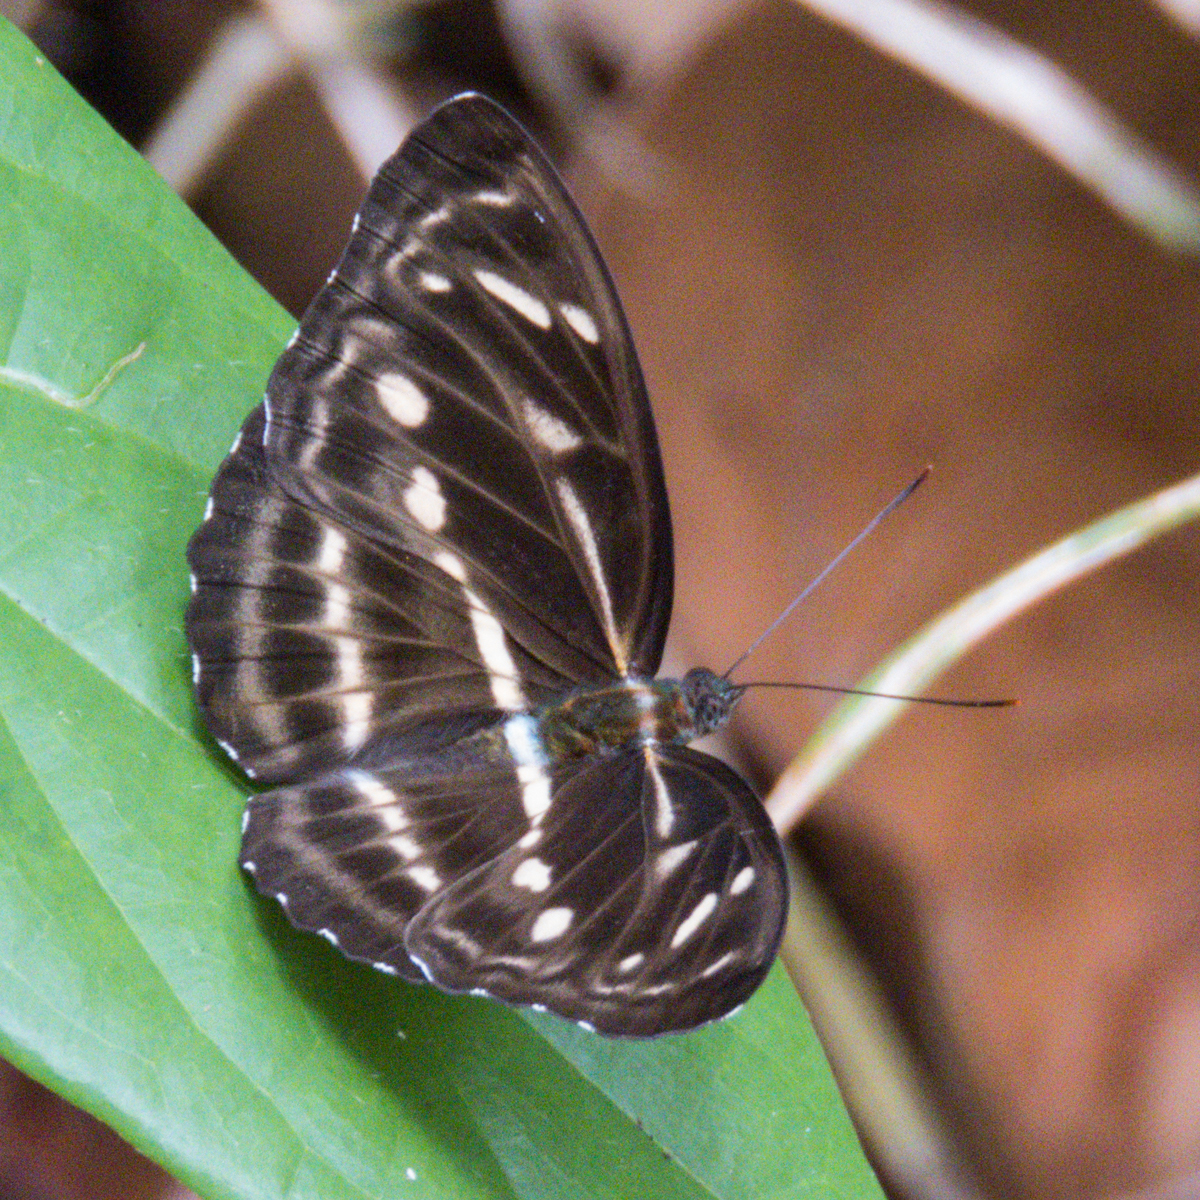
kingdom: Animalia
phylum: Arthropoda
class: Insecta
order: Lepidoptera
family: Nymphalidae
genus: Parathyma
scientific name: Parathyma kanwa
